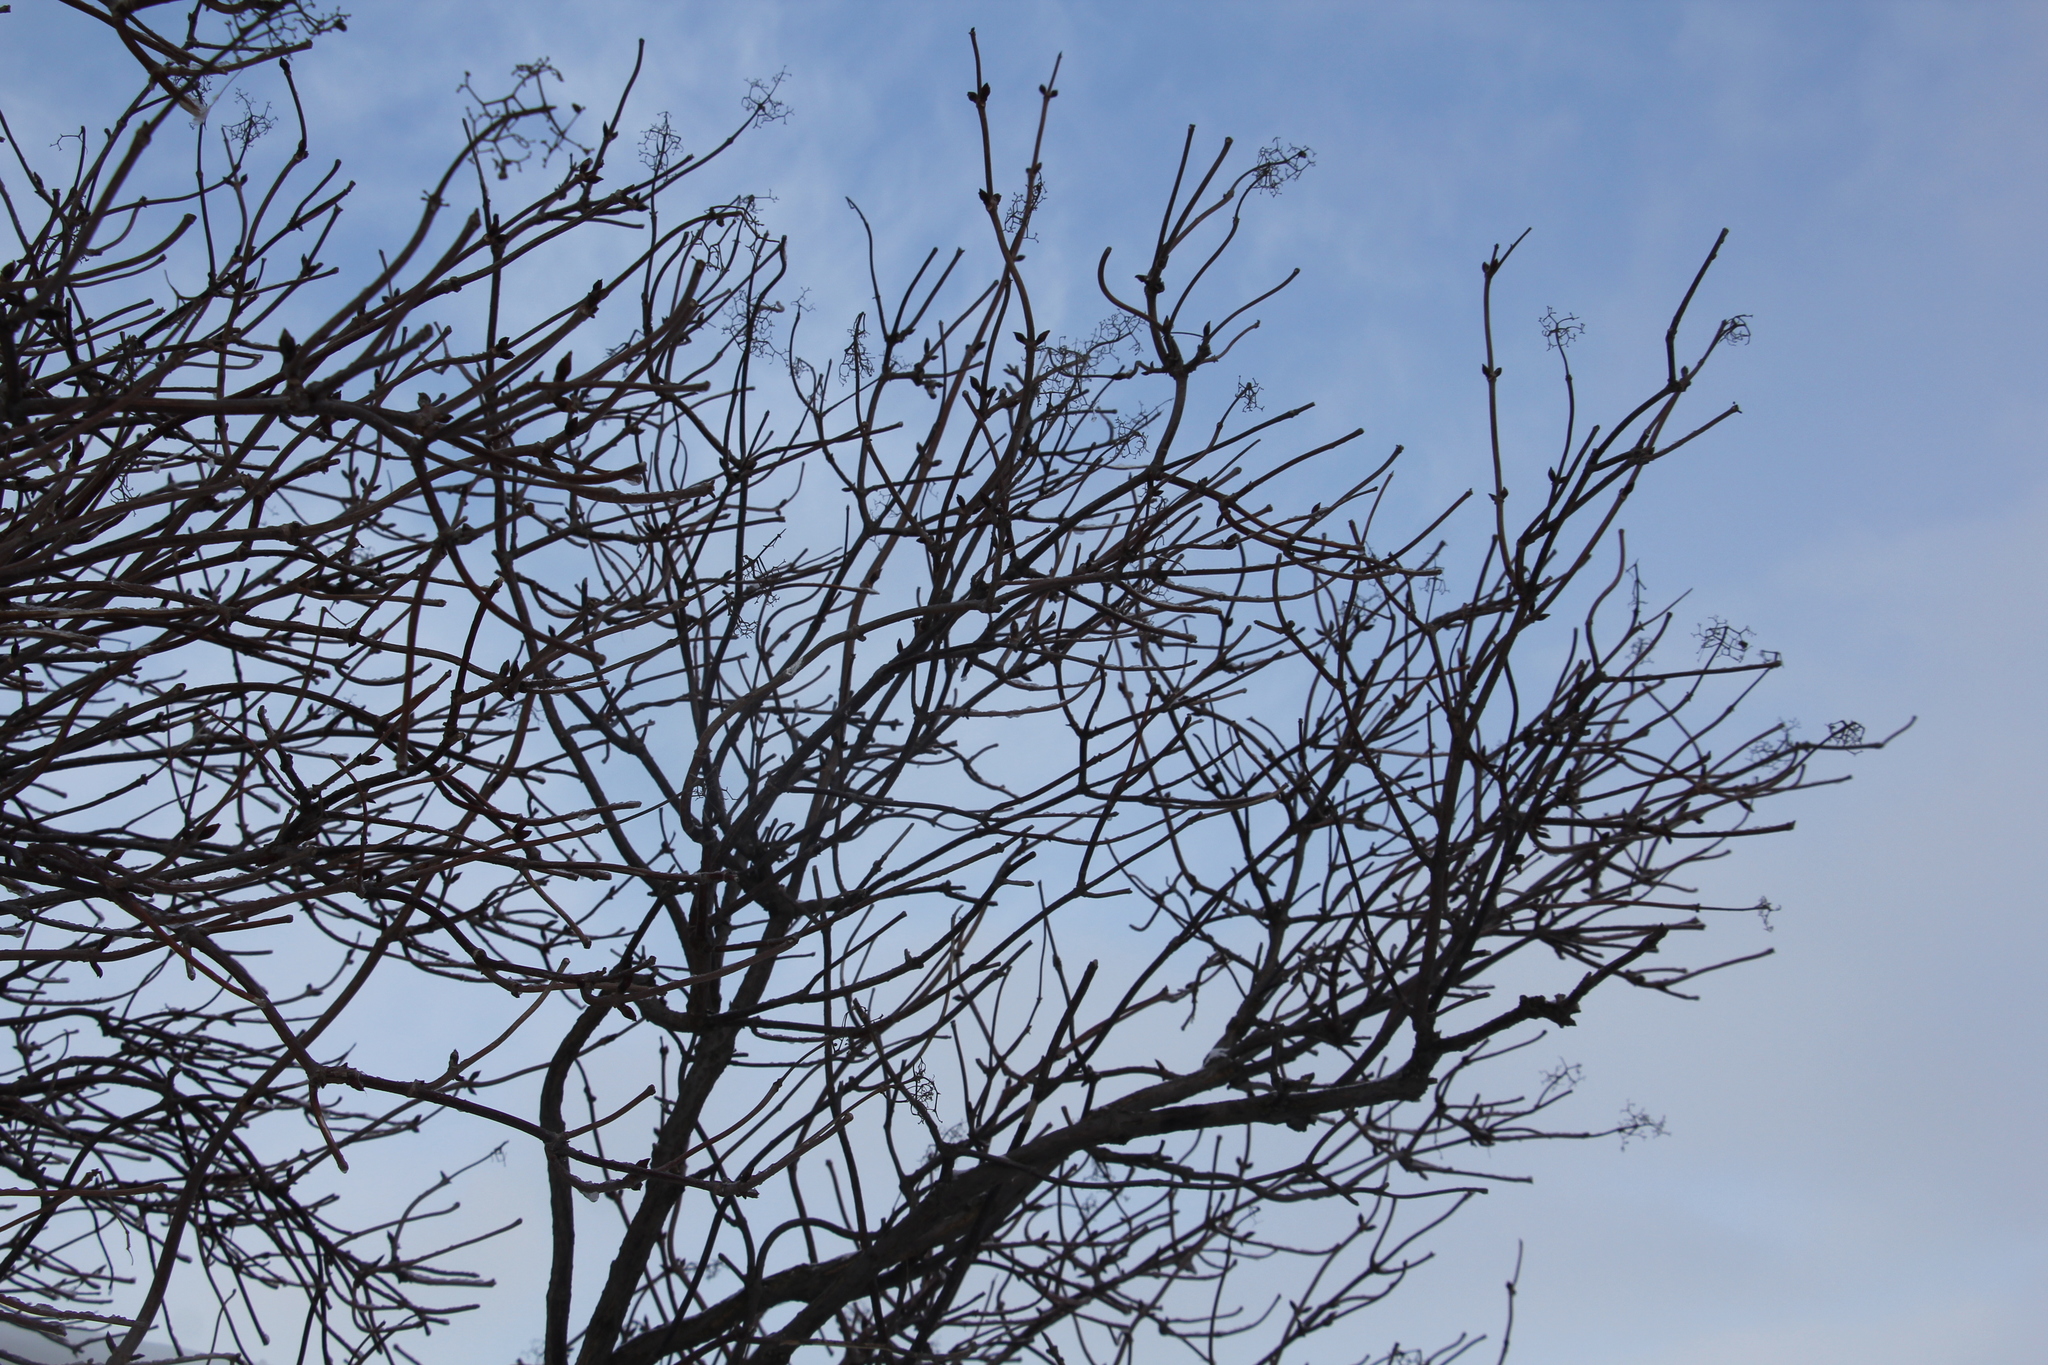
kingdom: Plantae
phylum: Tracheophyta
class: Magnoliopsida
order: Dipsacales
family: Viburnaceae
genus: Sambucus
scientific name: Sambucus sibirica
